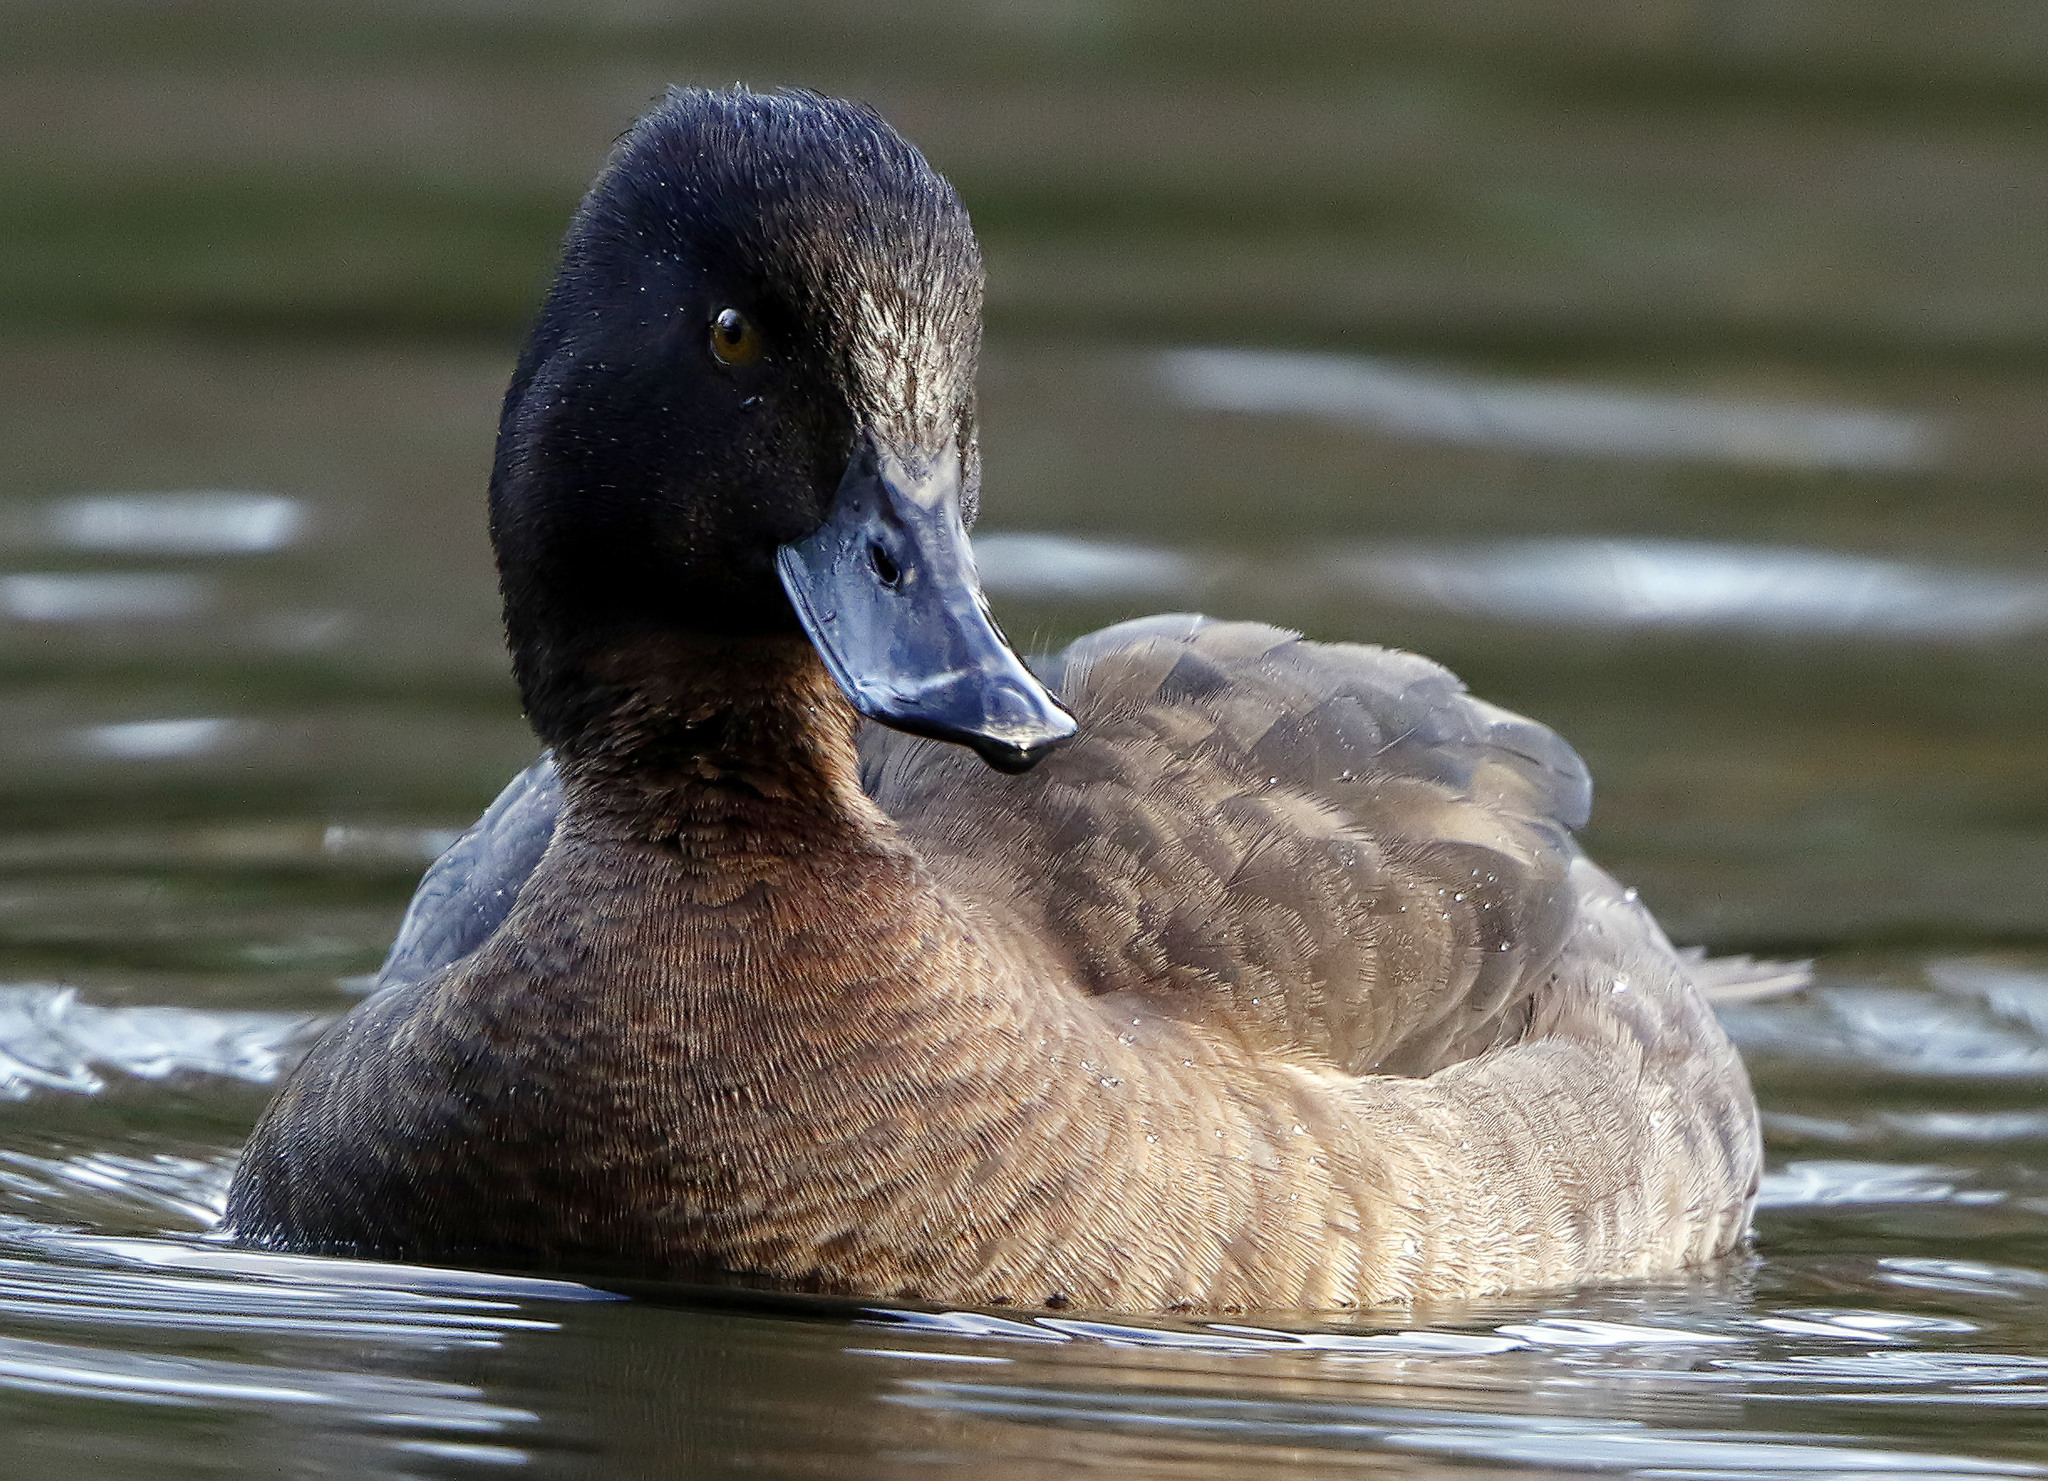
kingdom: Animalia
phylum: Chordata
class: Aves
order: Anseriformes
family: Anatidae
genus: Aythya
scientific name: Aythya fuligula
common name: Tufted duck
